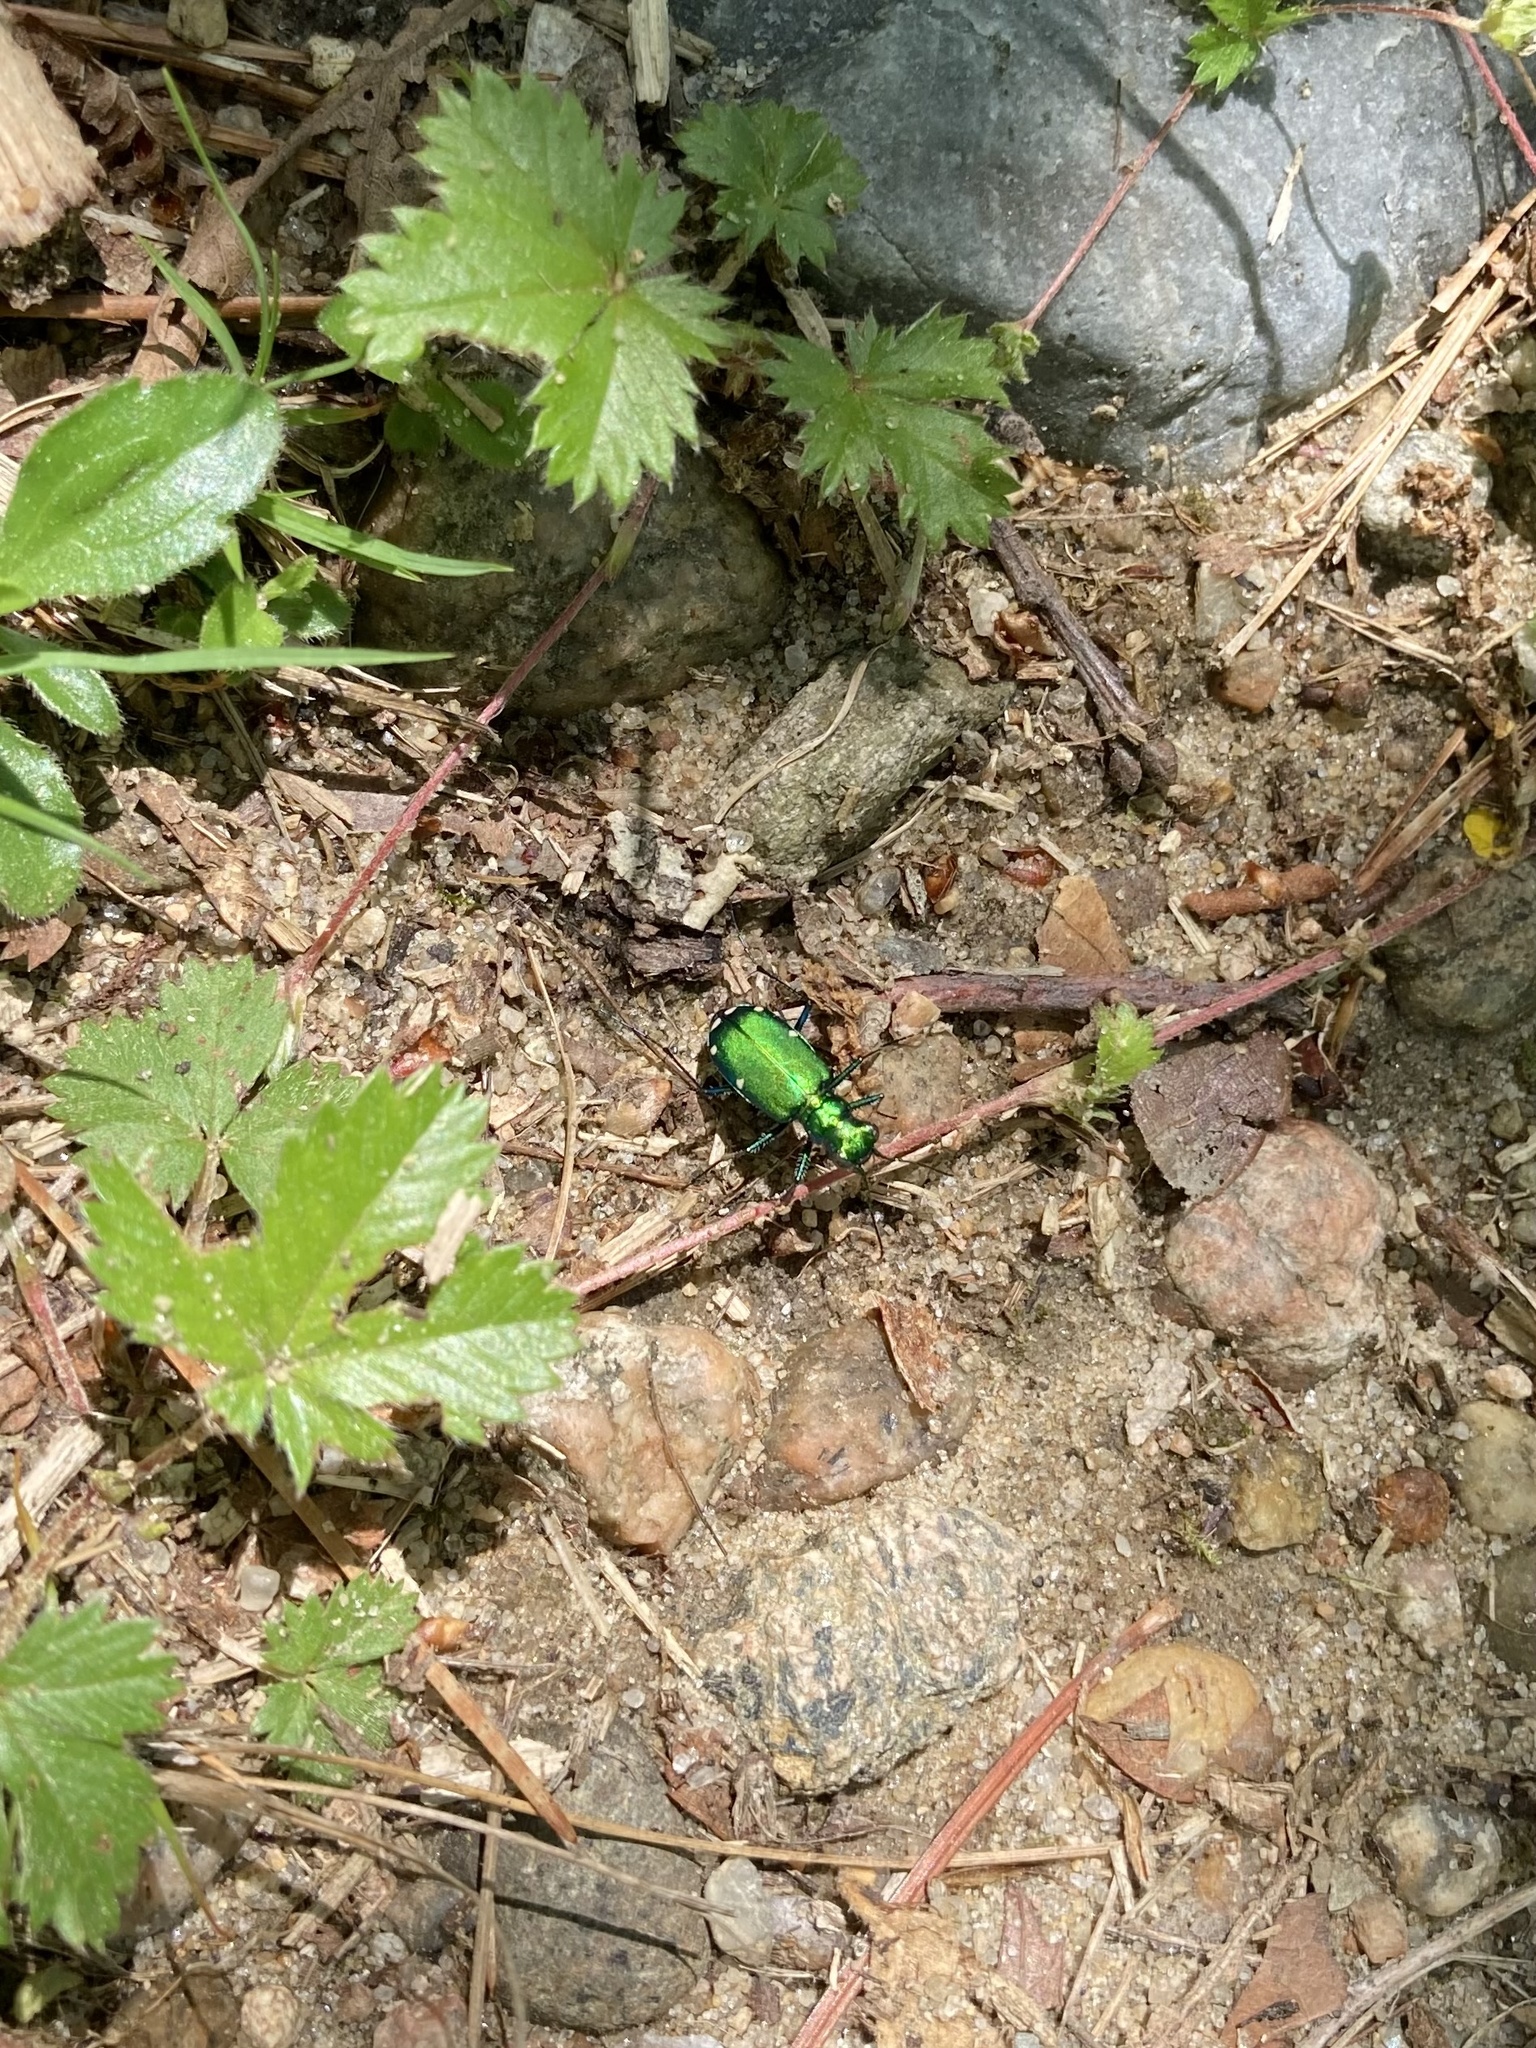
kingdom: Animalia
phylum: Arthropoda
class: Insecta
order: Coleoptera
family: Carabidae
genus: Cicindela
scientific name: Cicindela sexguttata
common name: Six-spotted tiger beetle
